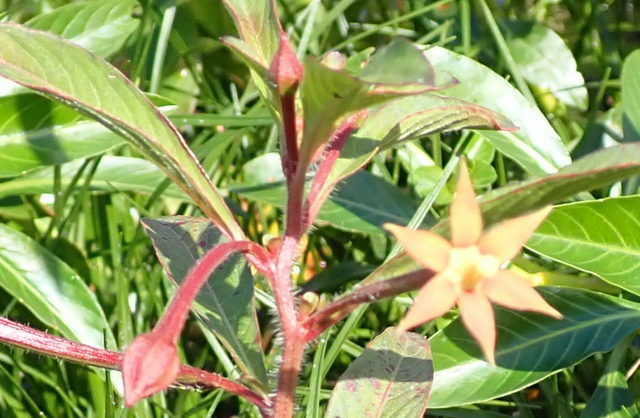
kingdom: Plantae
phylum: Tracheophyta
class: Magnoliopsida
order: Myrtales
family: Onagraceae
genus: Ludwigia
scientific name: Ludwigia leptocarpa
